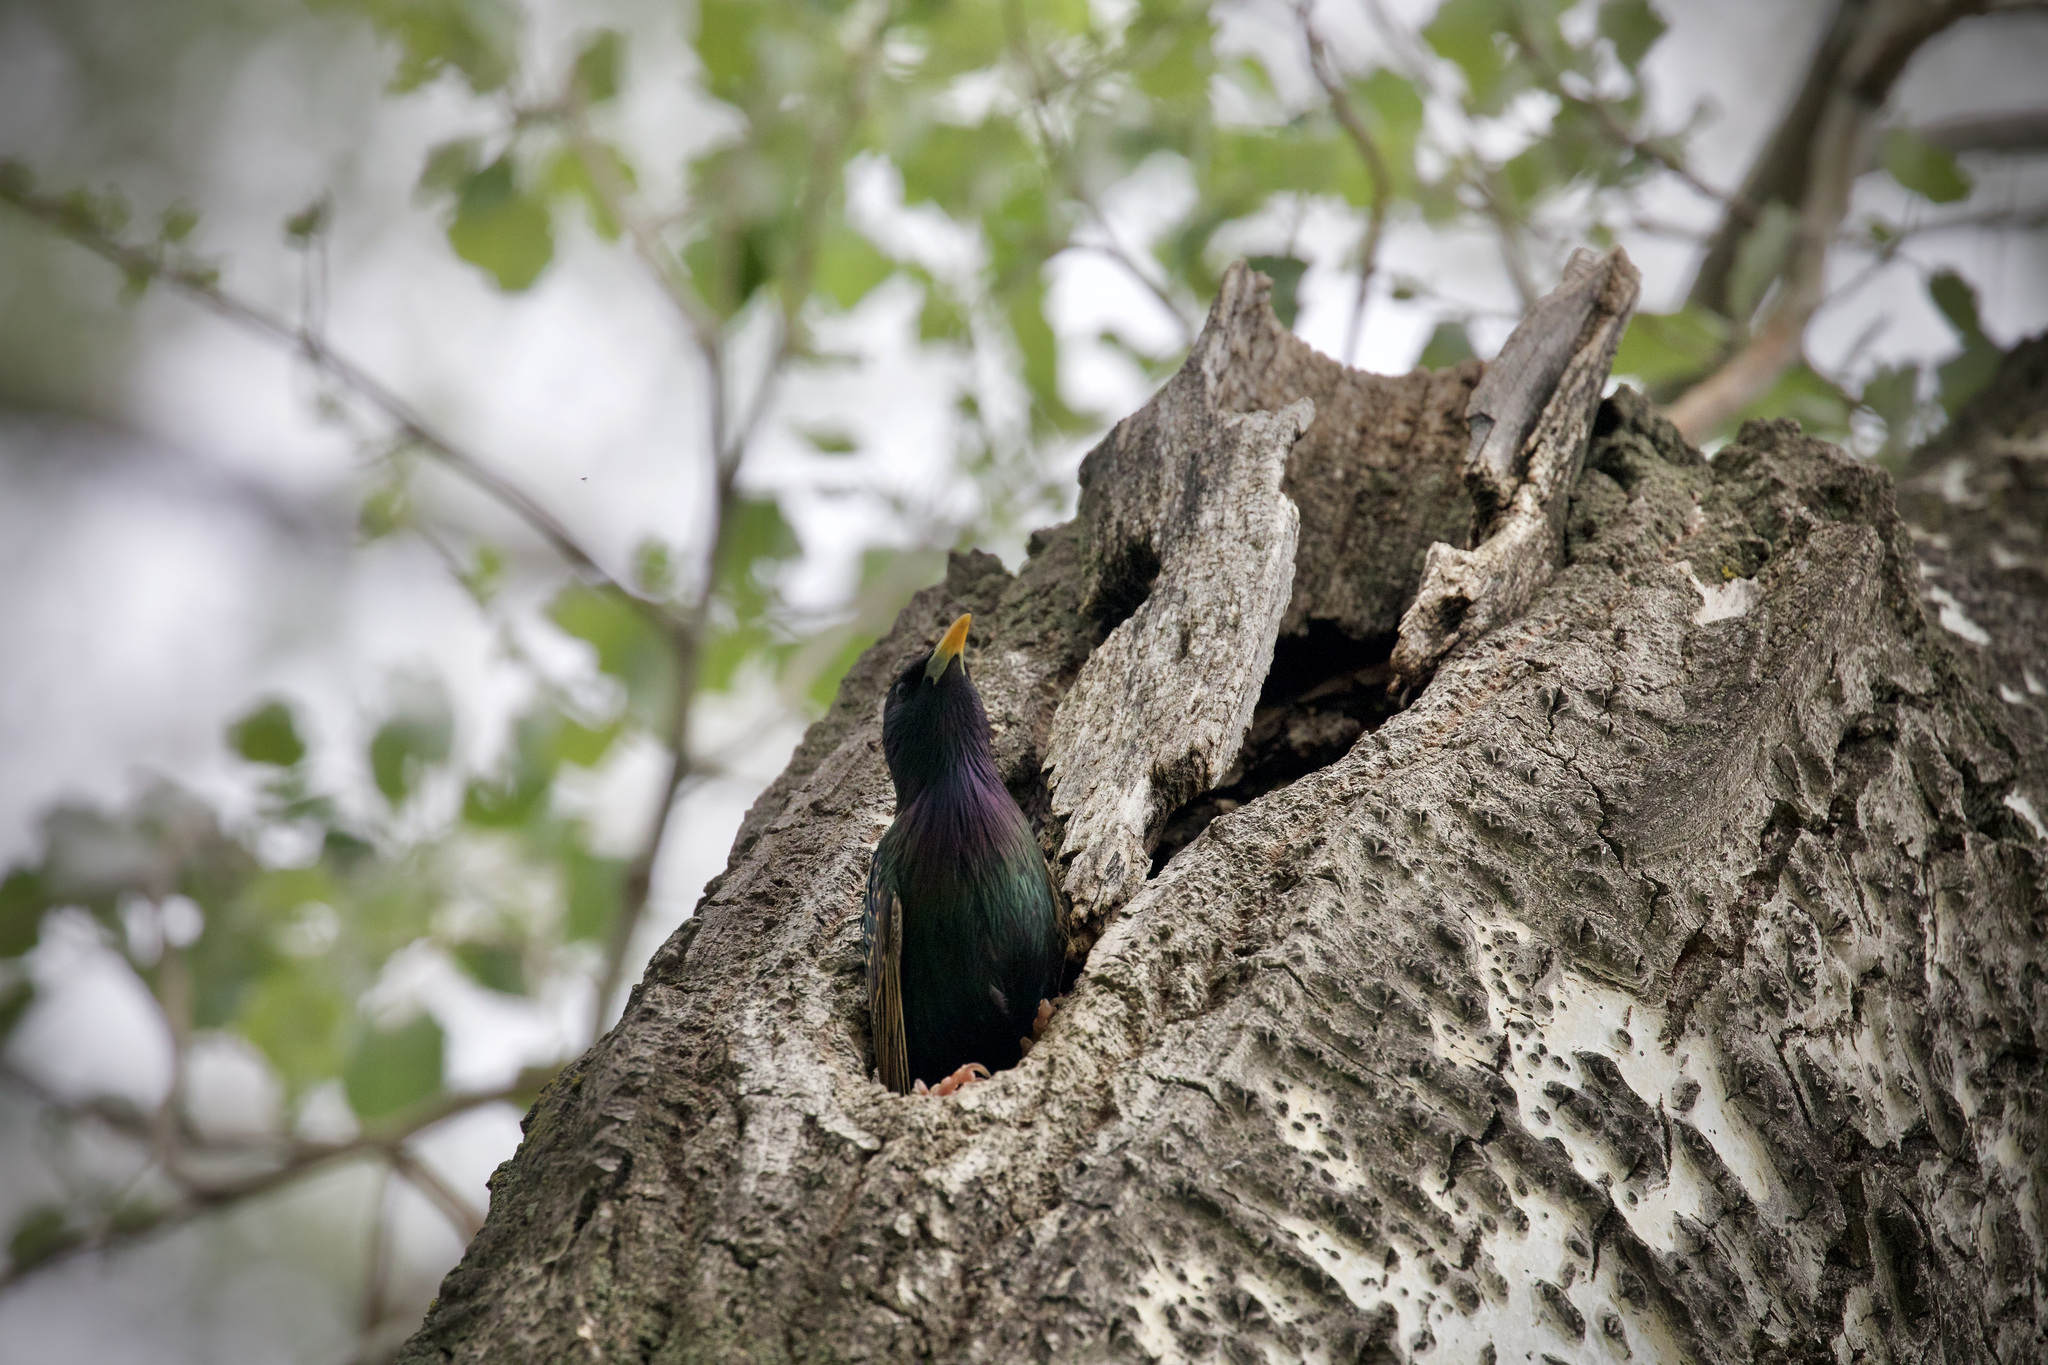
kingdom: Animalia
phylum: Chordata
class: Aves
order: Passeriformes
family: Sturnidae
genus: Sturnus
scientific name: Sturnus vulgaris
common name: Common starling
